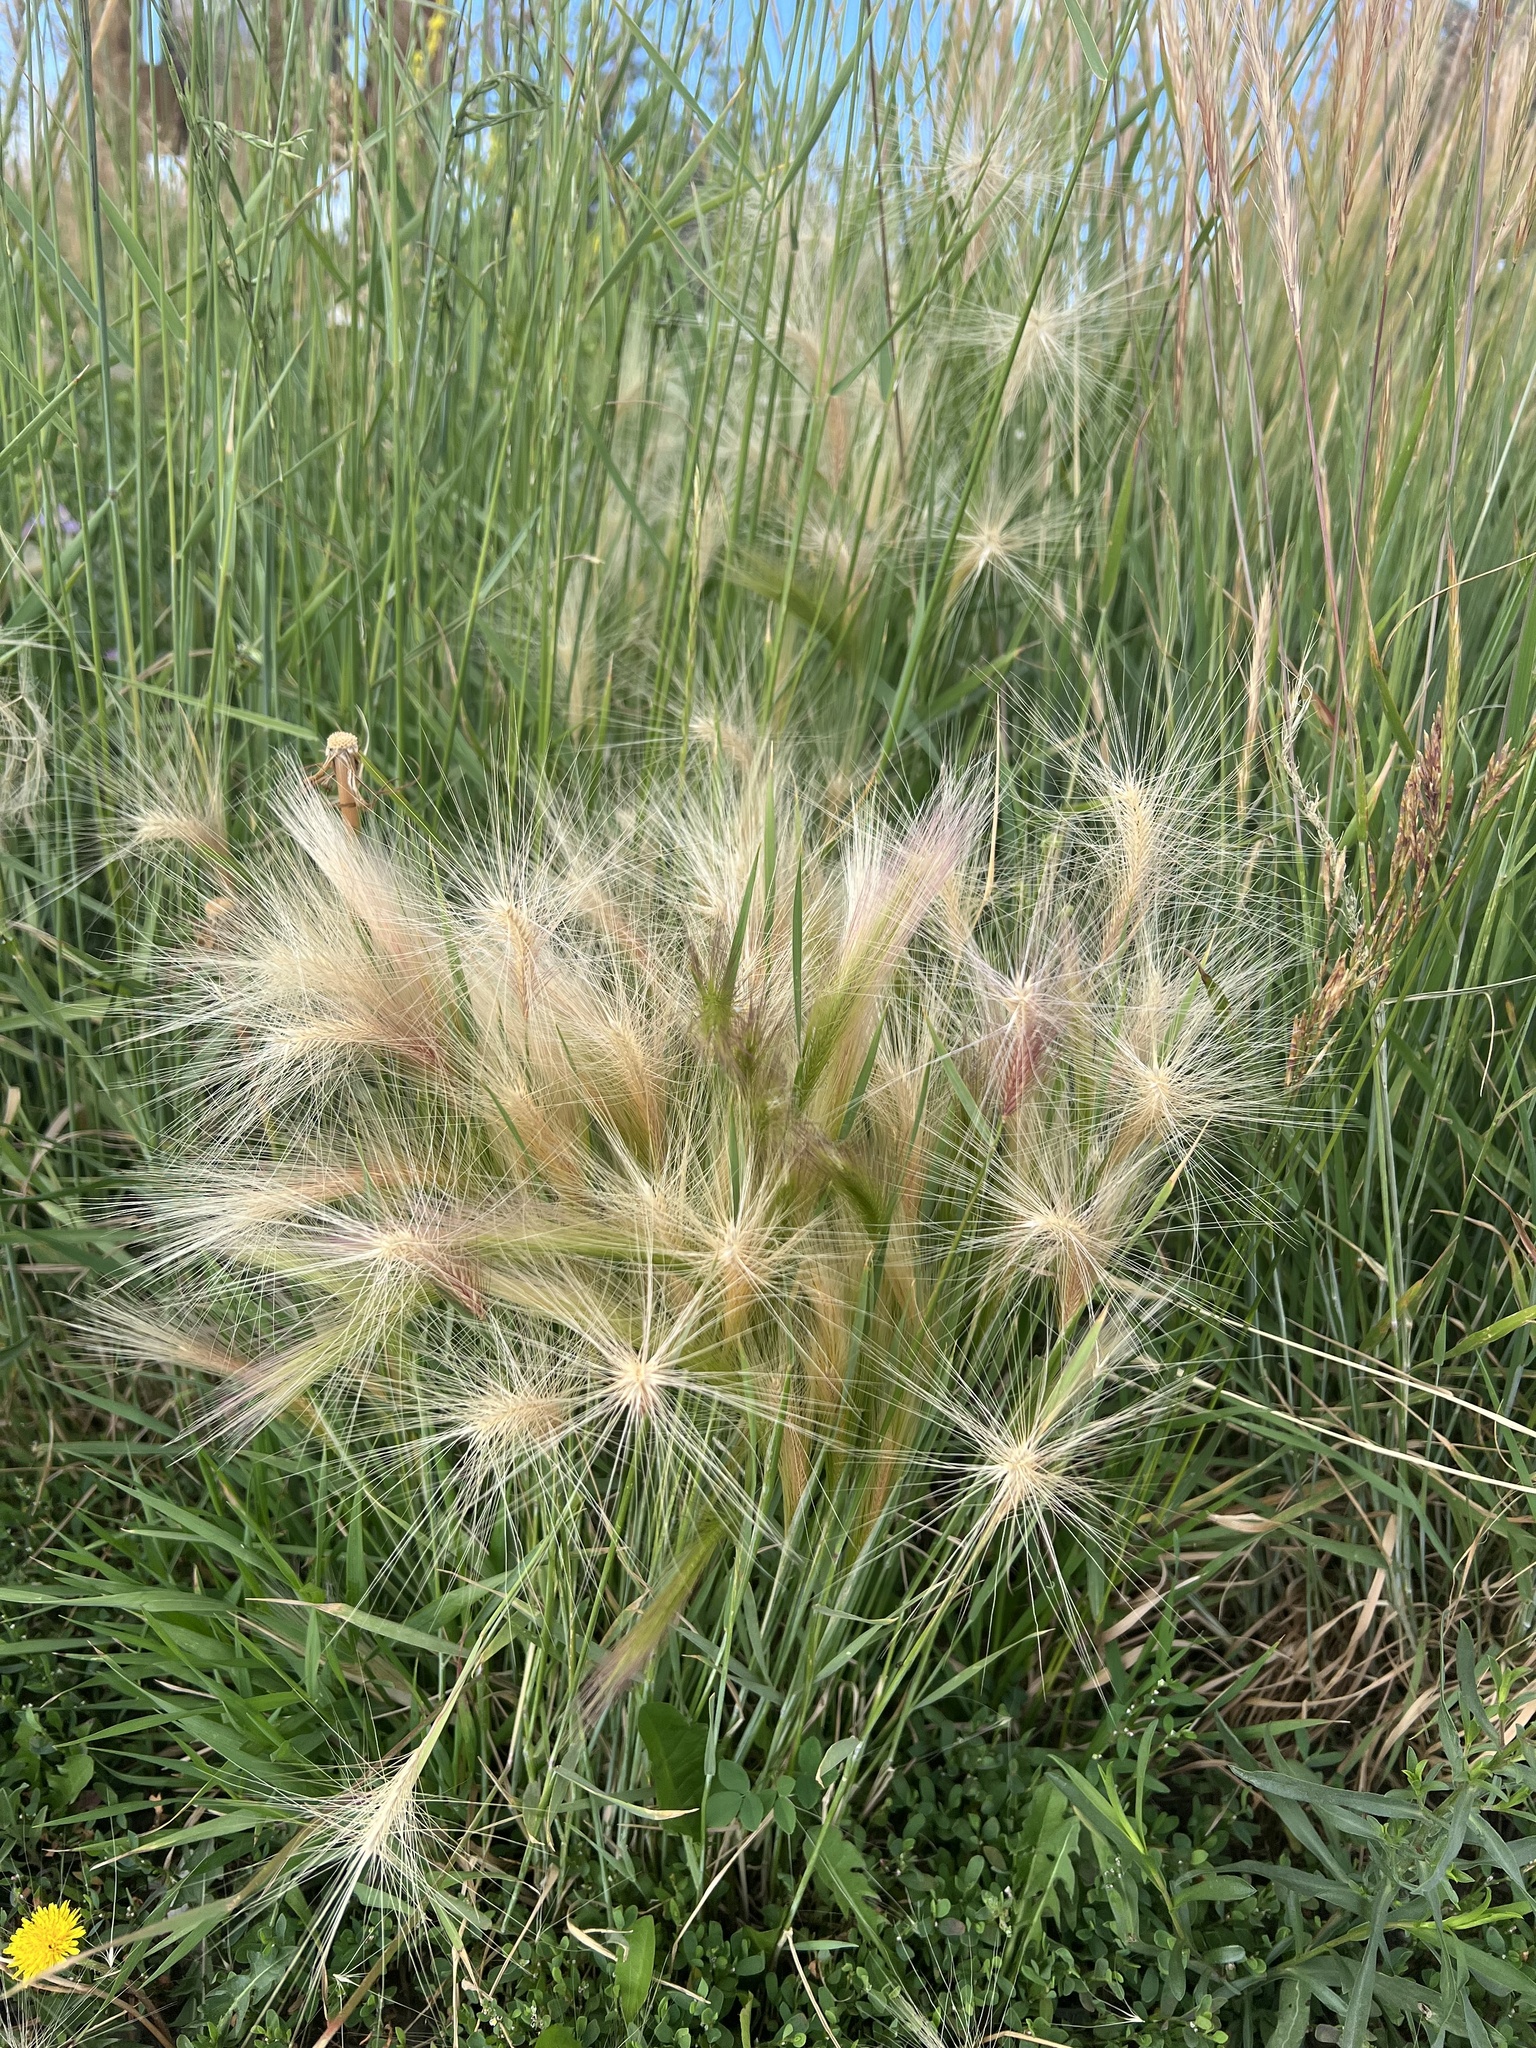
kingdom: Plantae
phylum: Tracheophyta
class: Liliopsida
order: Poales
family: Poaceae
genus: Hordeum
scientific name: Hordeum jubatum
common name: Foxtail barley
